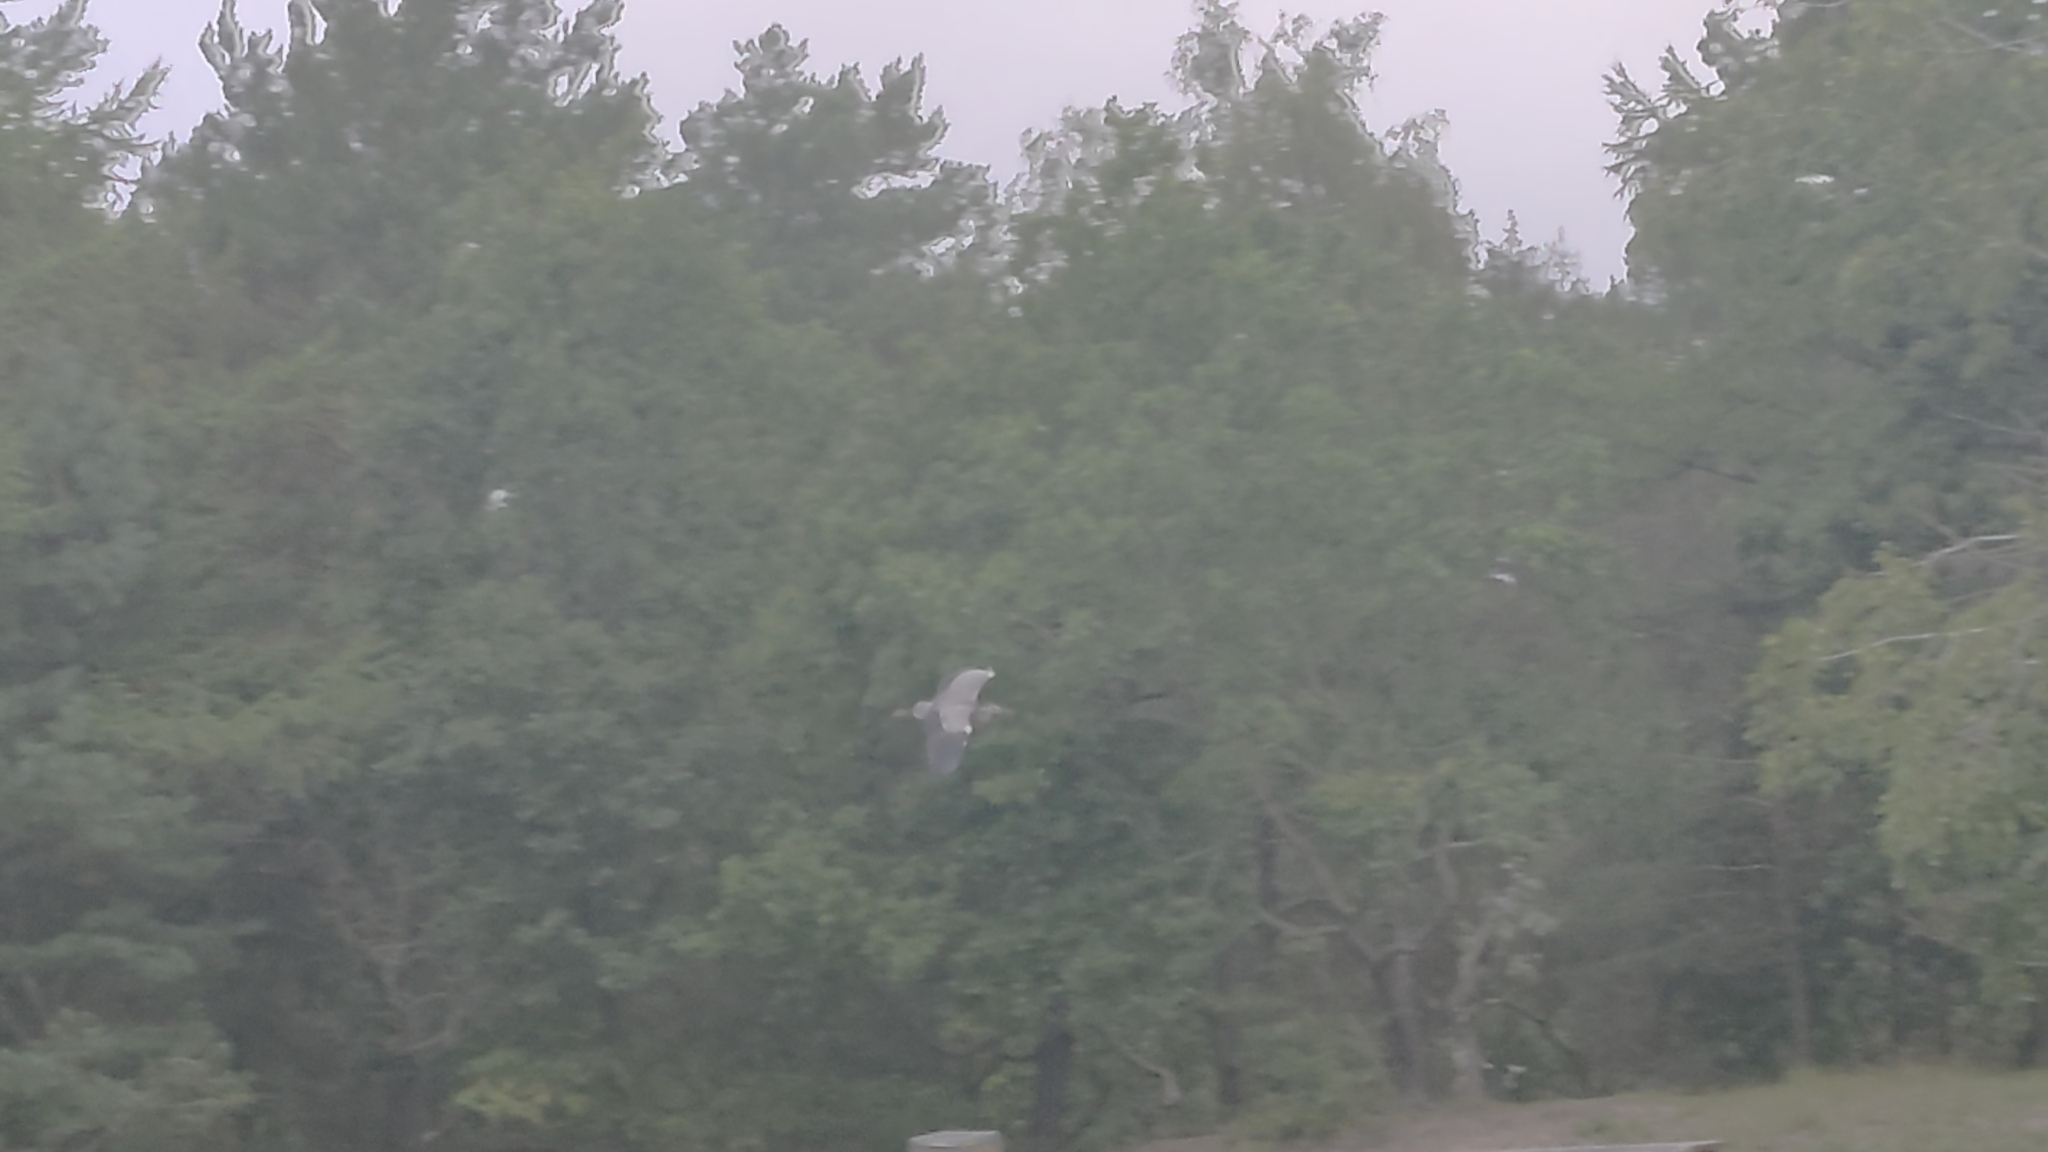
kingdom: Animalia
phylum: Chordata
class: Aves
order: Pelecaniformes
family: Ardeidae
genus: Ardea
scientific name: Ardea cinerea
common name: Grey heron
